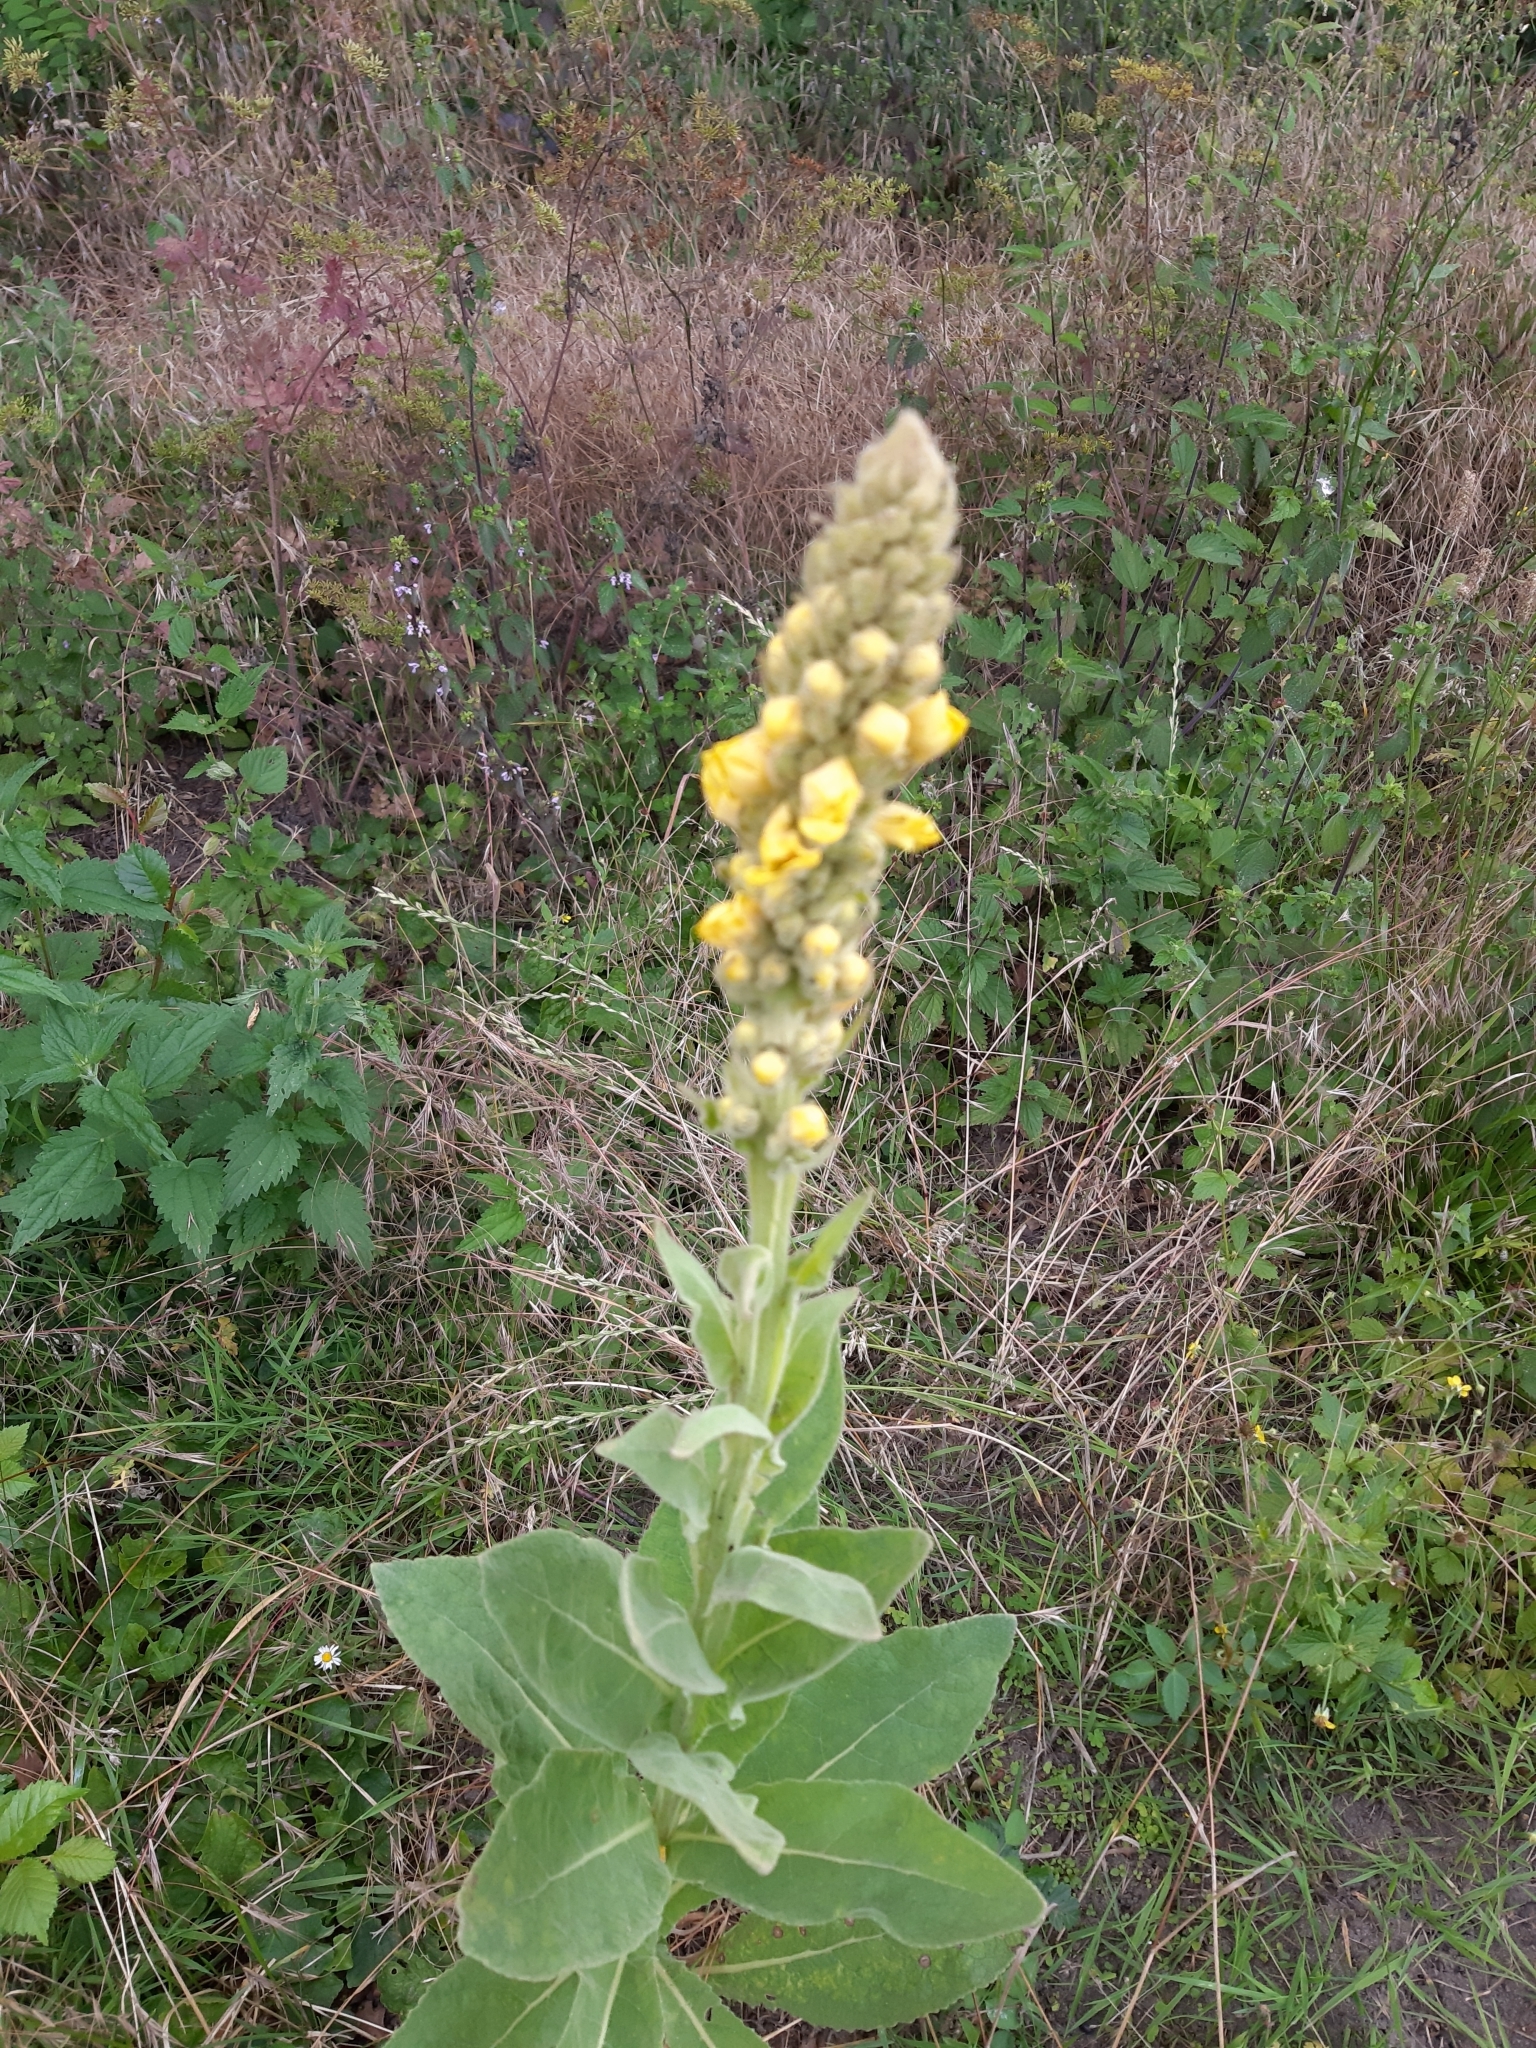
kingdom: Plantae
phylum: Tracheophyta
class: Magnoliopsida
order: Lamiales
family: Scrophulariaceae
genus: Verbascum
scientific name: Verbascum thapsus
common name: Common mullein
